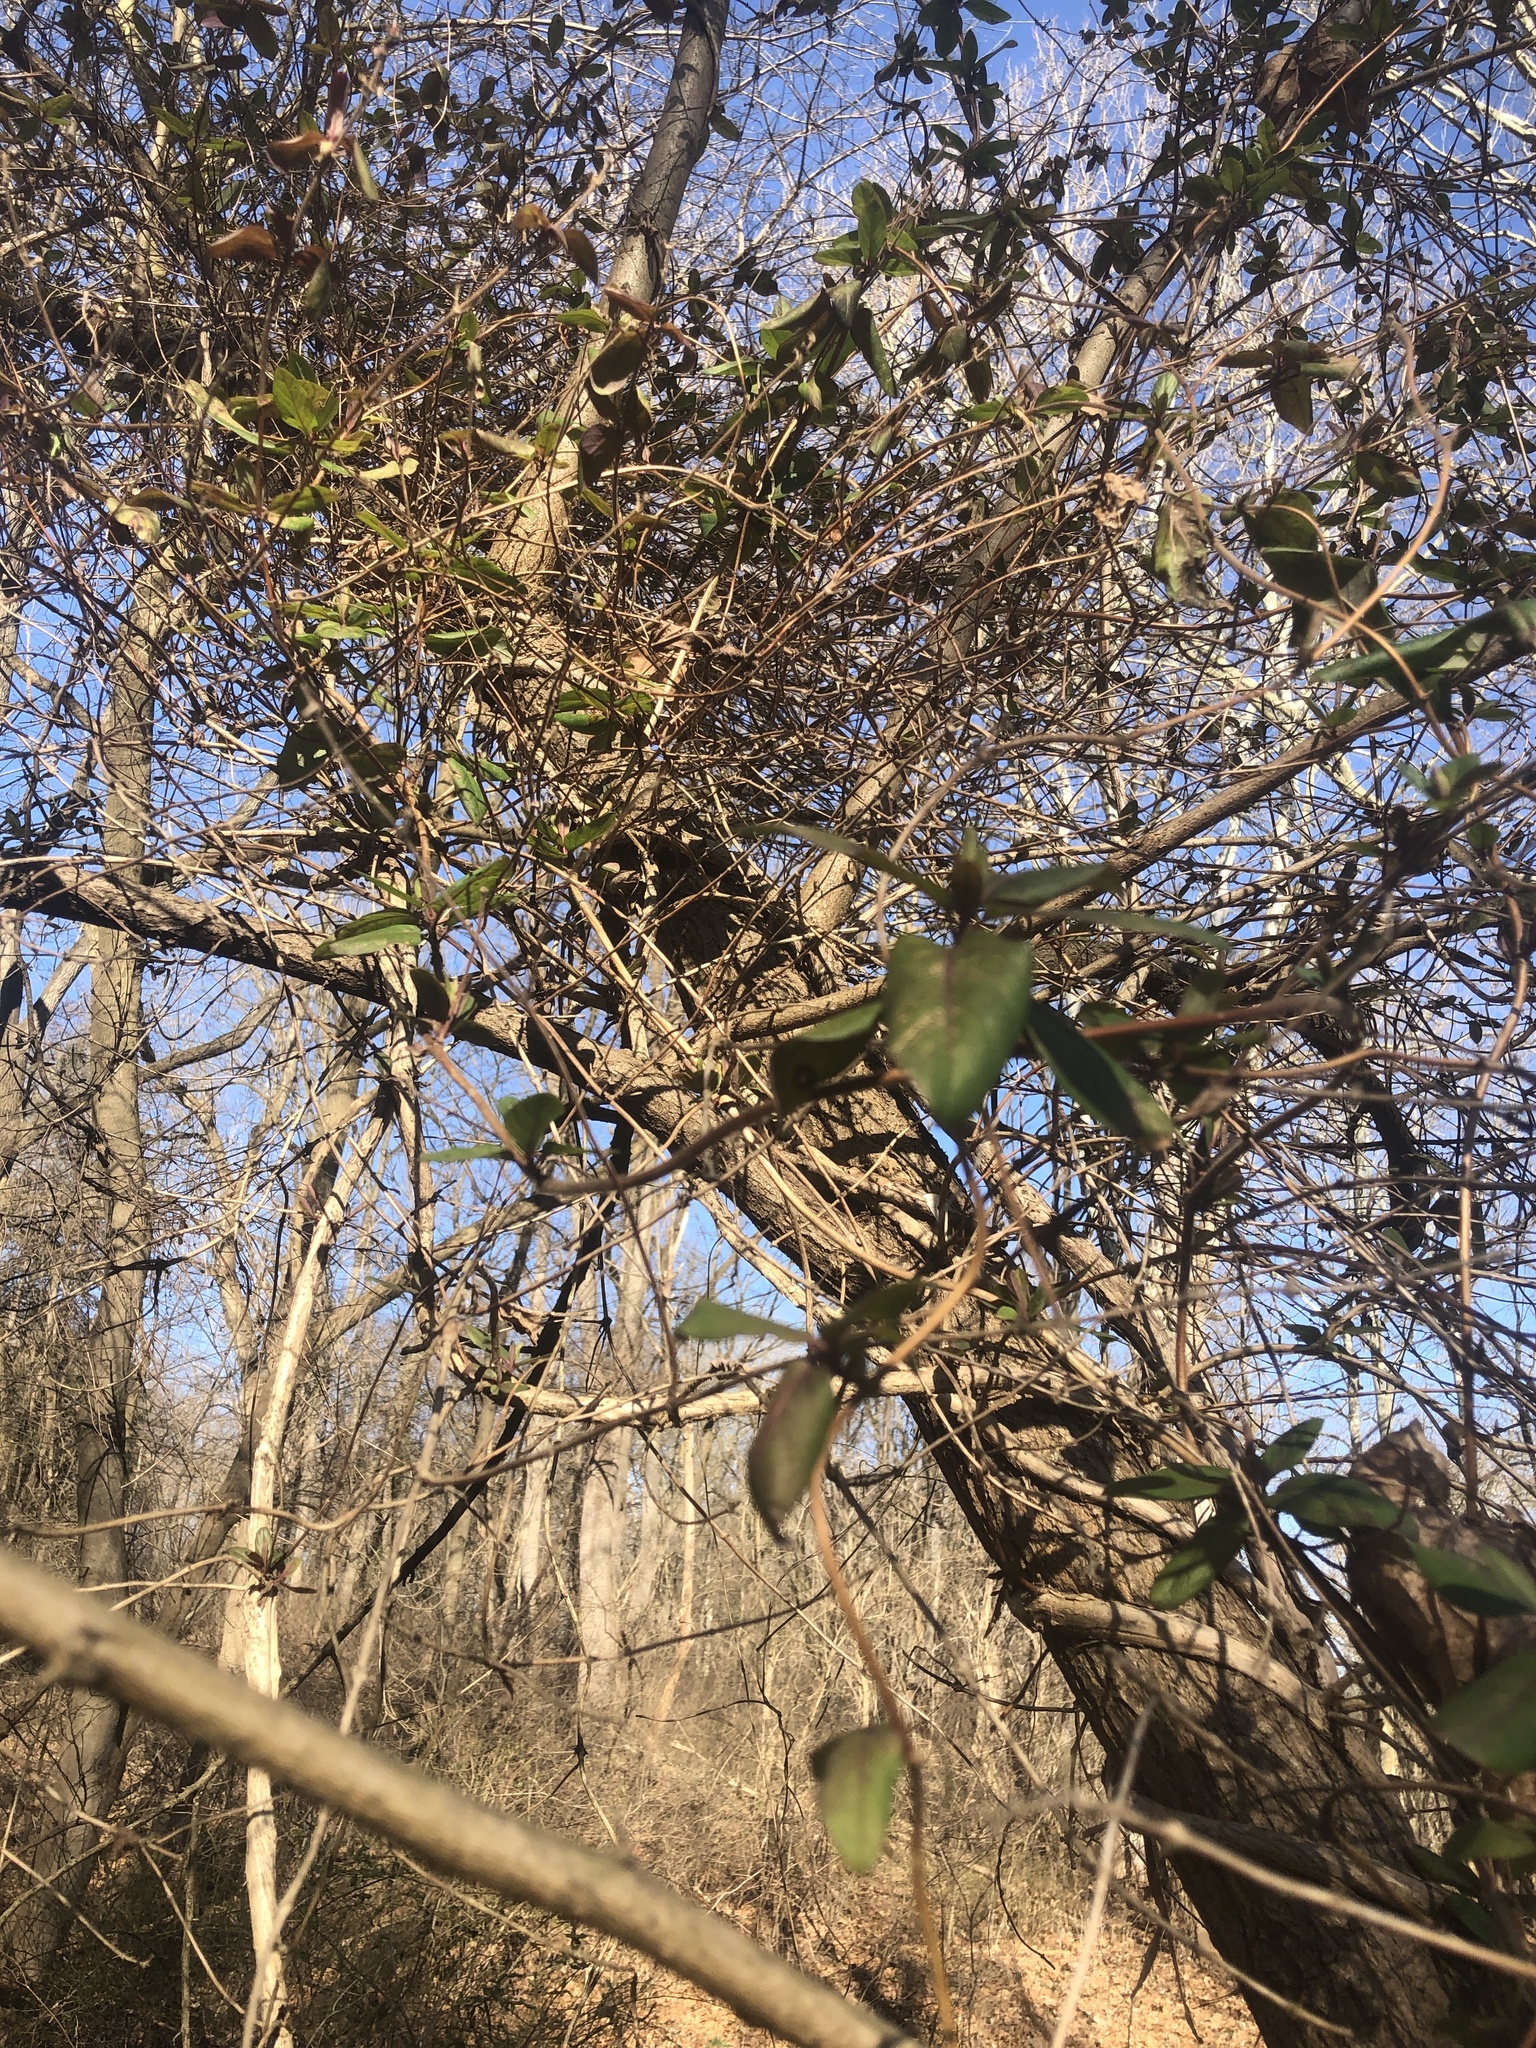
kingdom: Plantae
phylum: Tracheophyta
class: Magnoliopsida
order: Dipsacales
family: Caprifoliaceae
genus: Lonicera
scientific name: Lonicera japonica
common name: Japanese honeysuckle
